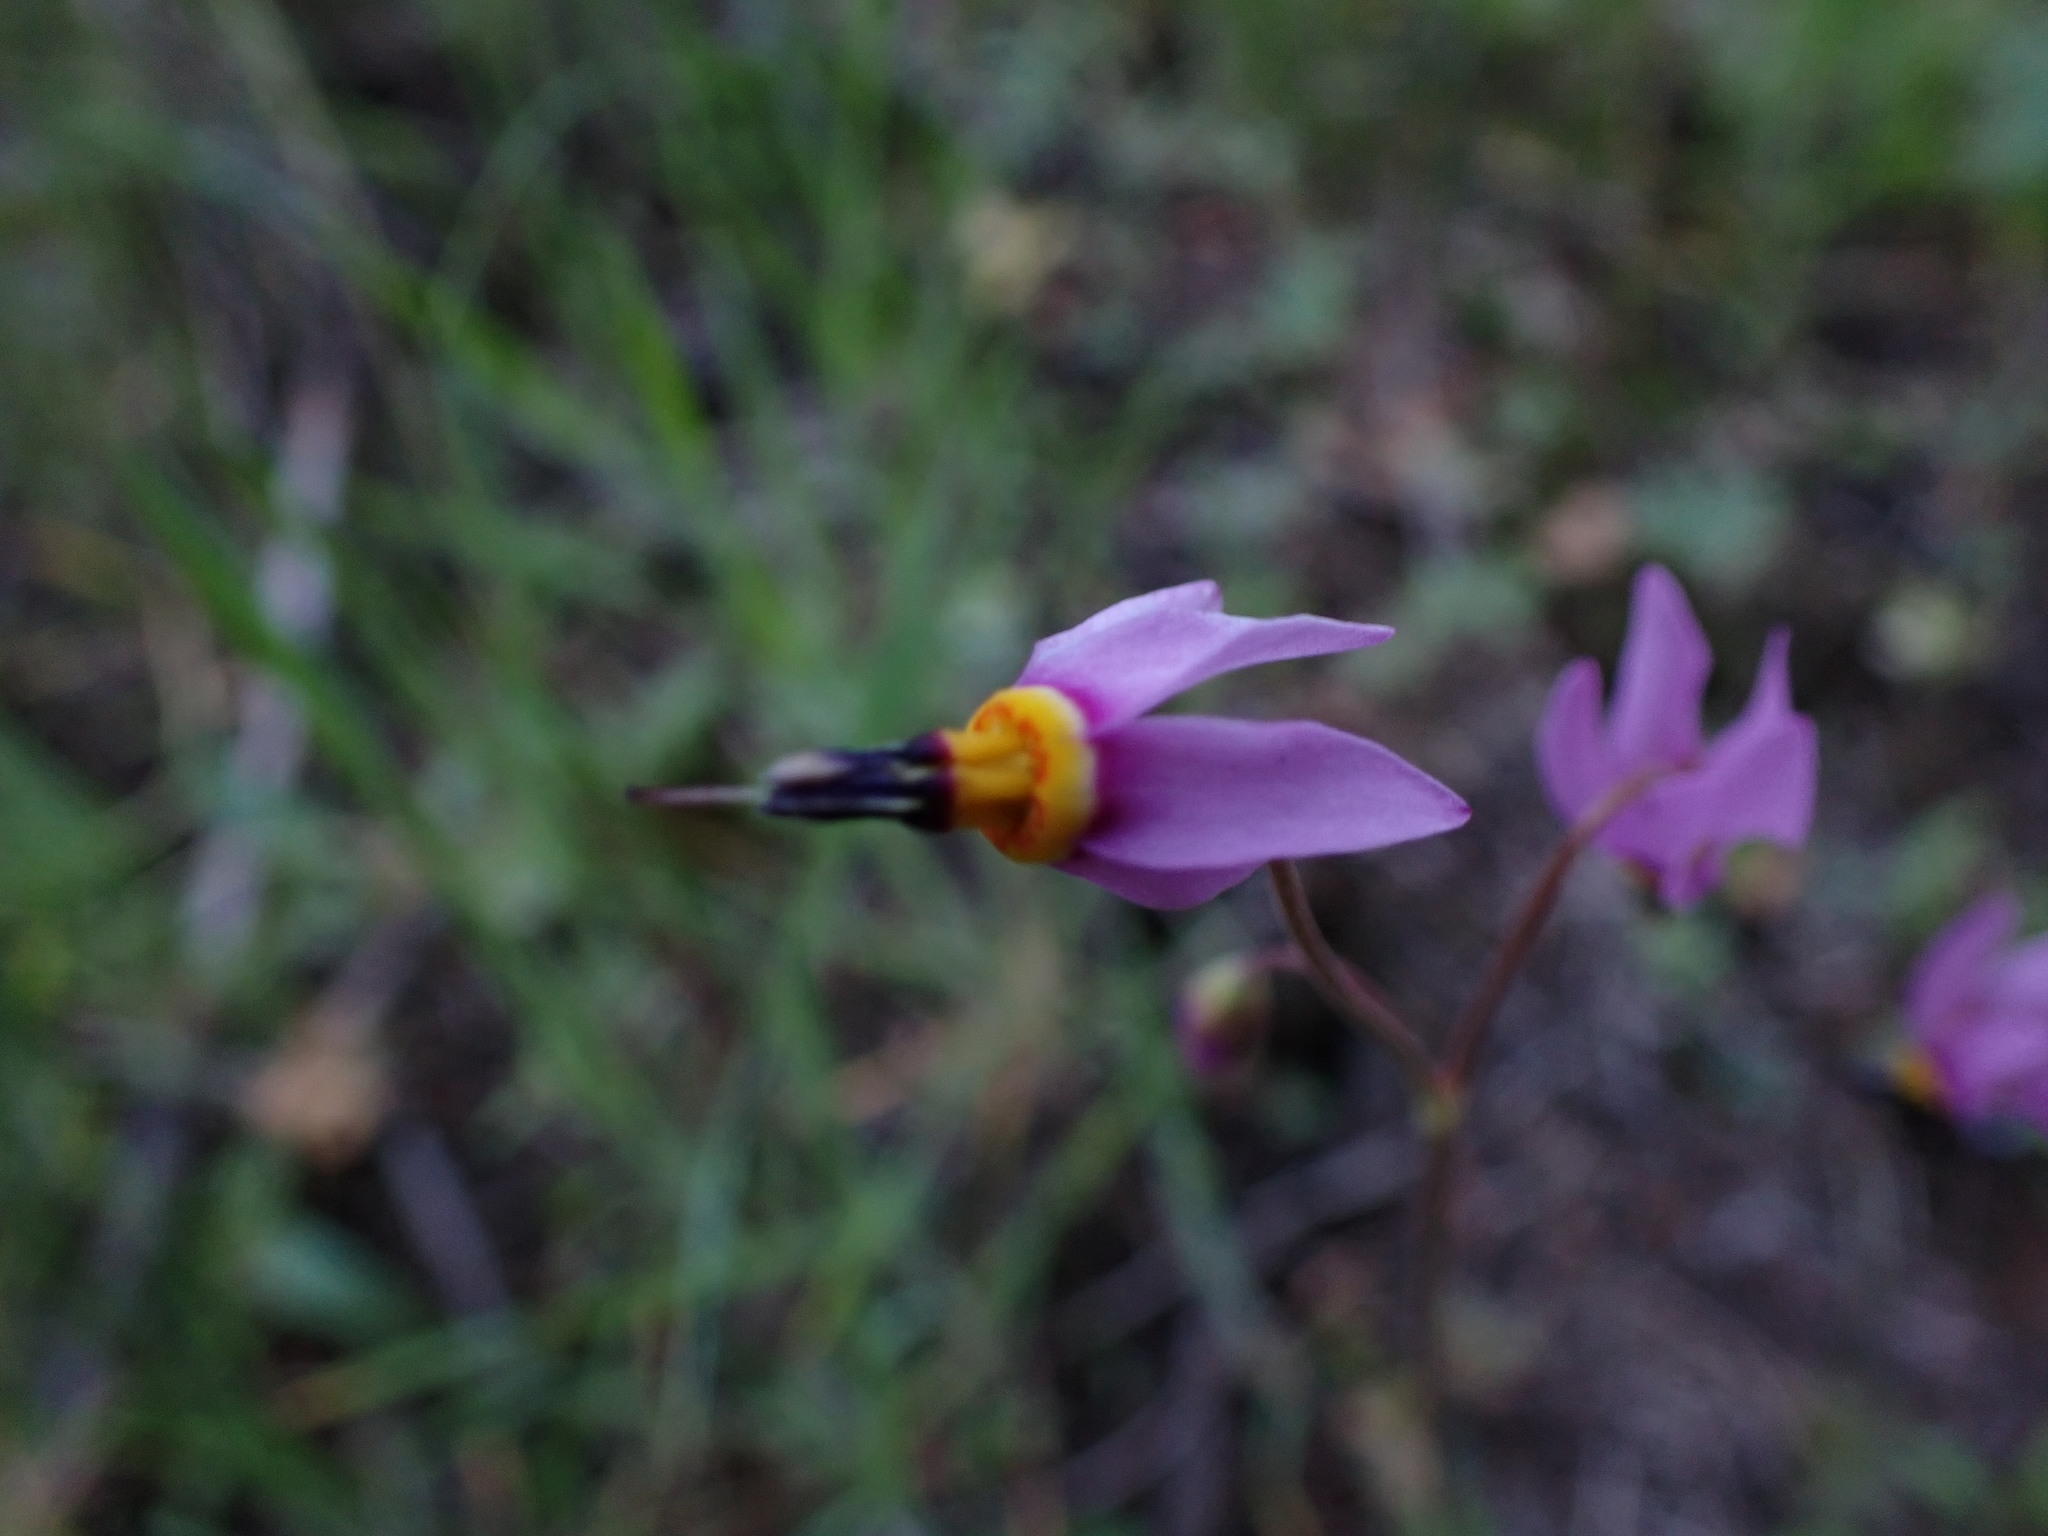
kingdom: Plantae
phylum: Tracheophyta
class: Magnoliopsida
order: Ericales
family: Primulaceae
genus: Dodecatheon
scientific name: Dodecatheon pulchellum
